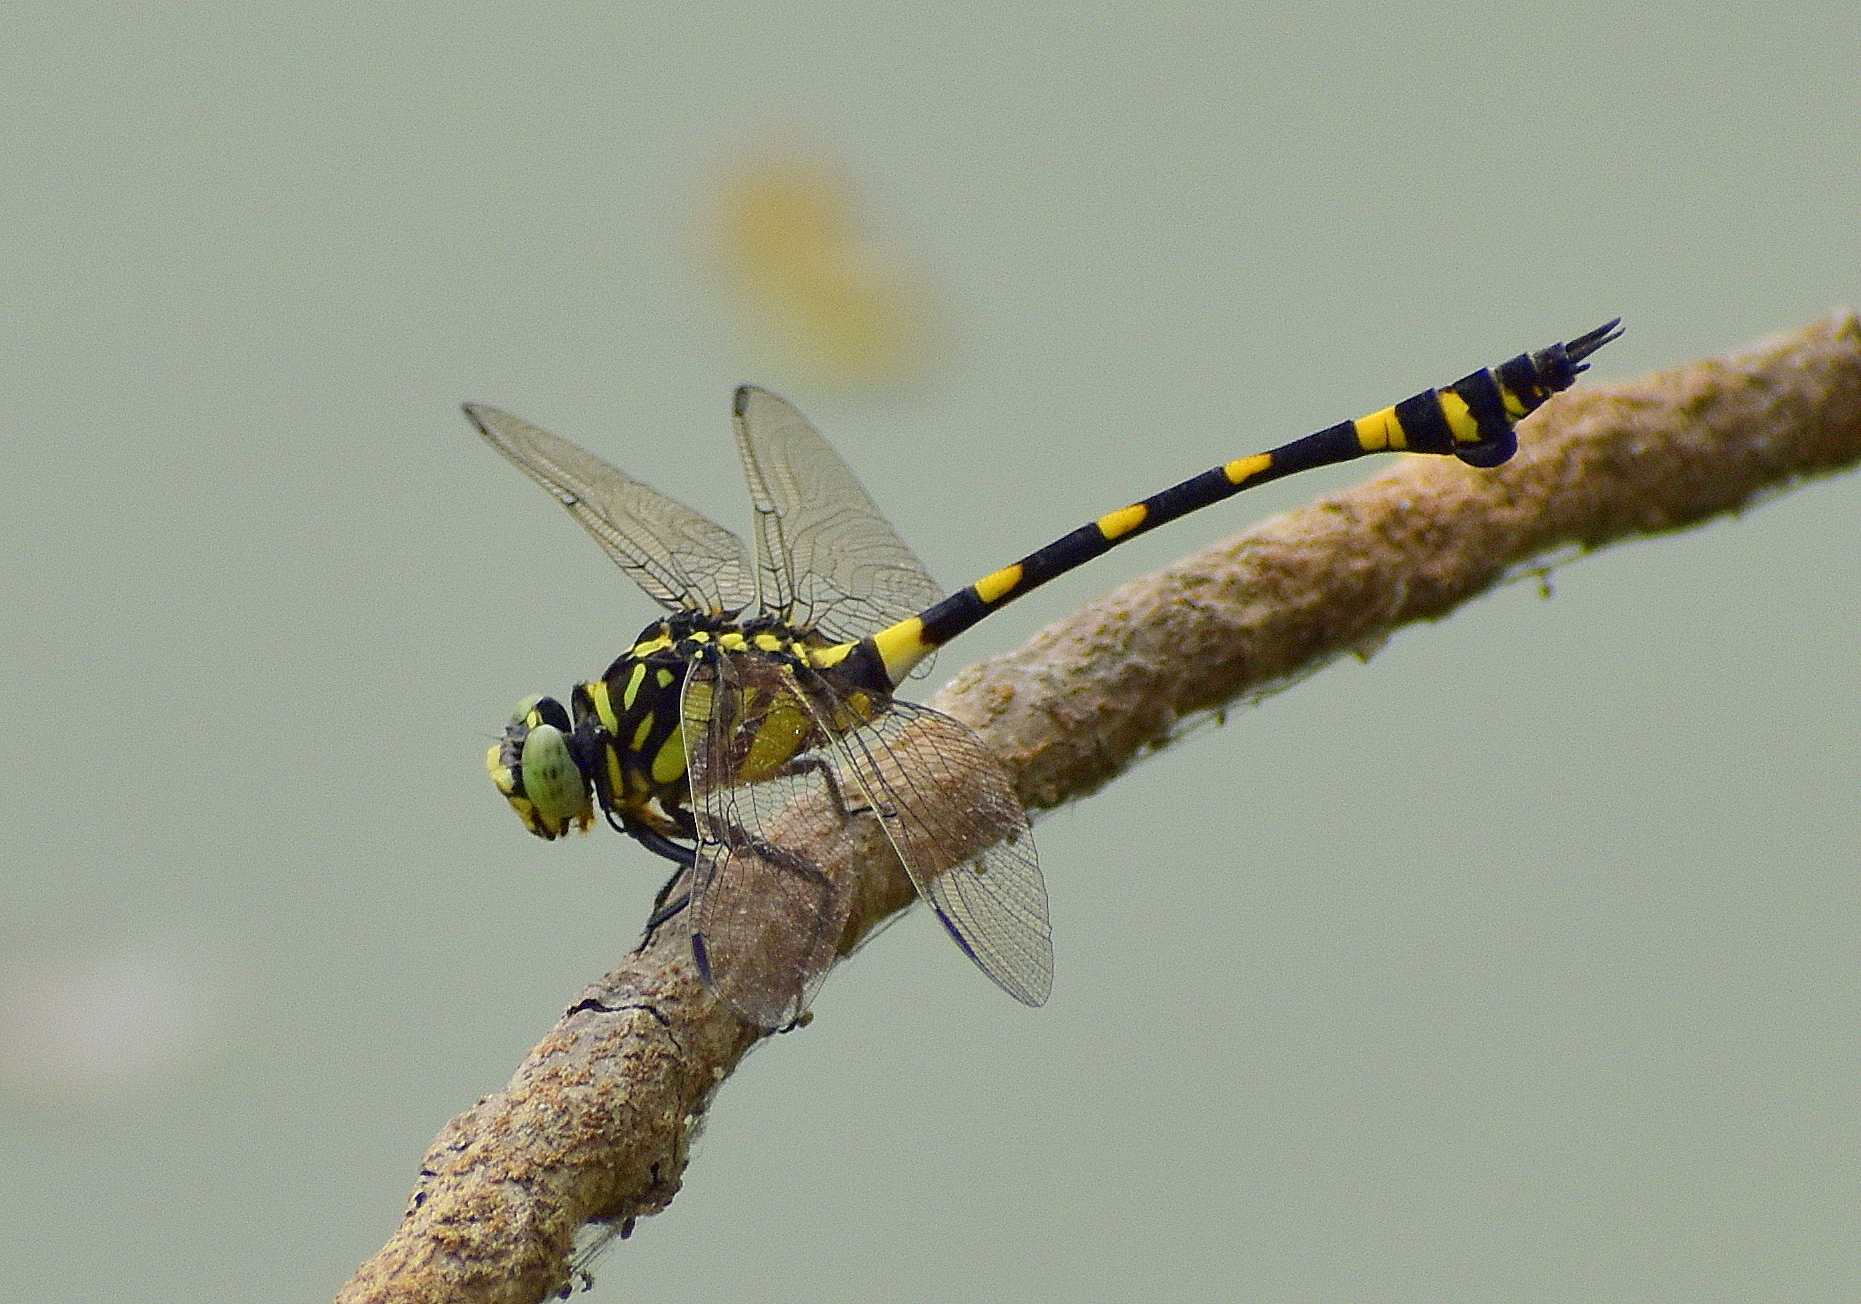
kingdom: Animalia
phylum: Arthropoda
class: Insecta
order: Odonata
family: Gomphidae
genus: Ictinogomphus
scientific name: Ictinogomphus rapax
